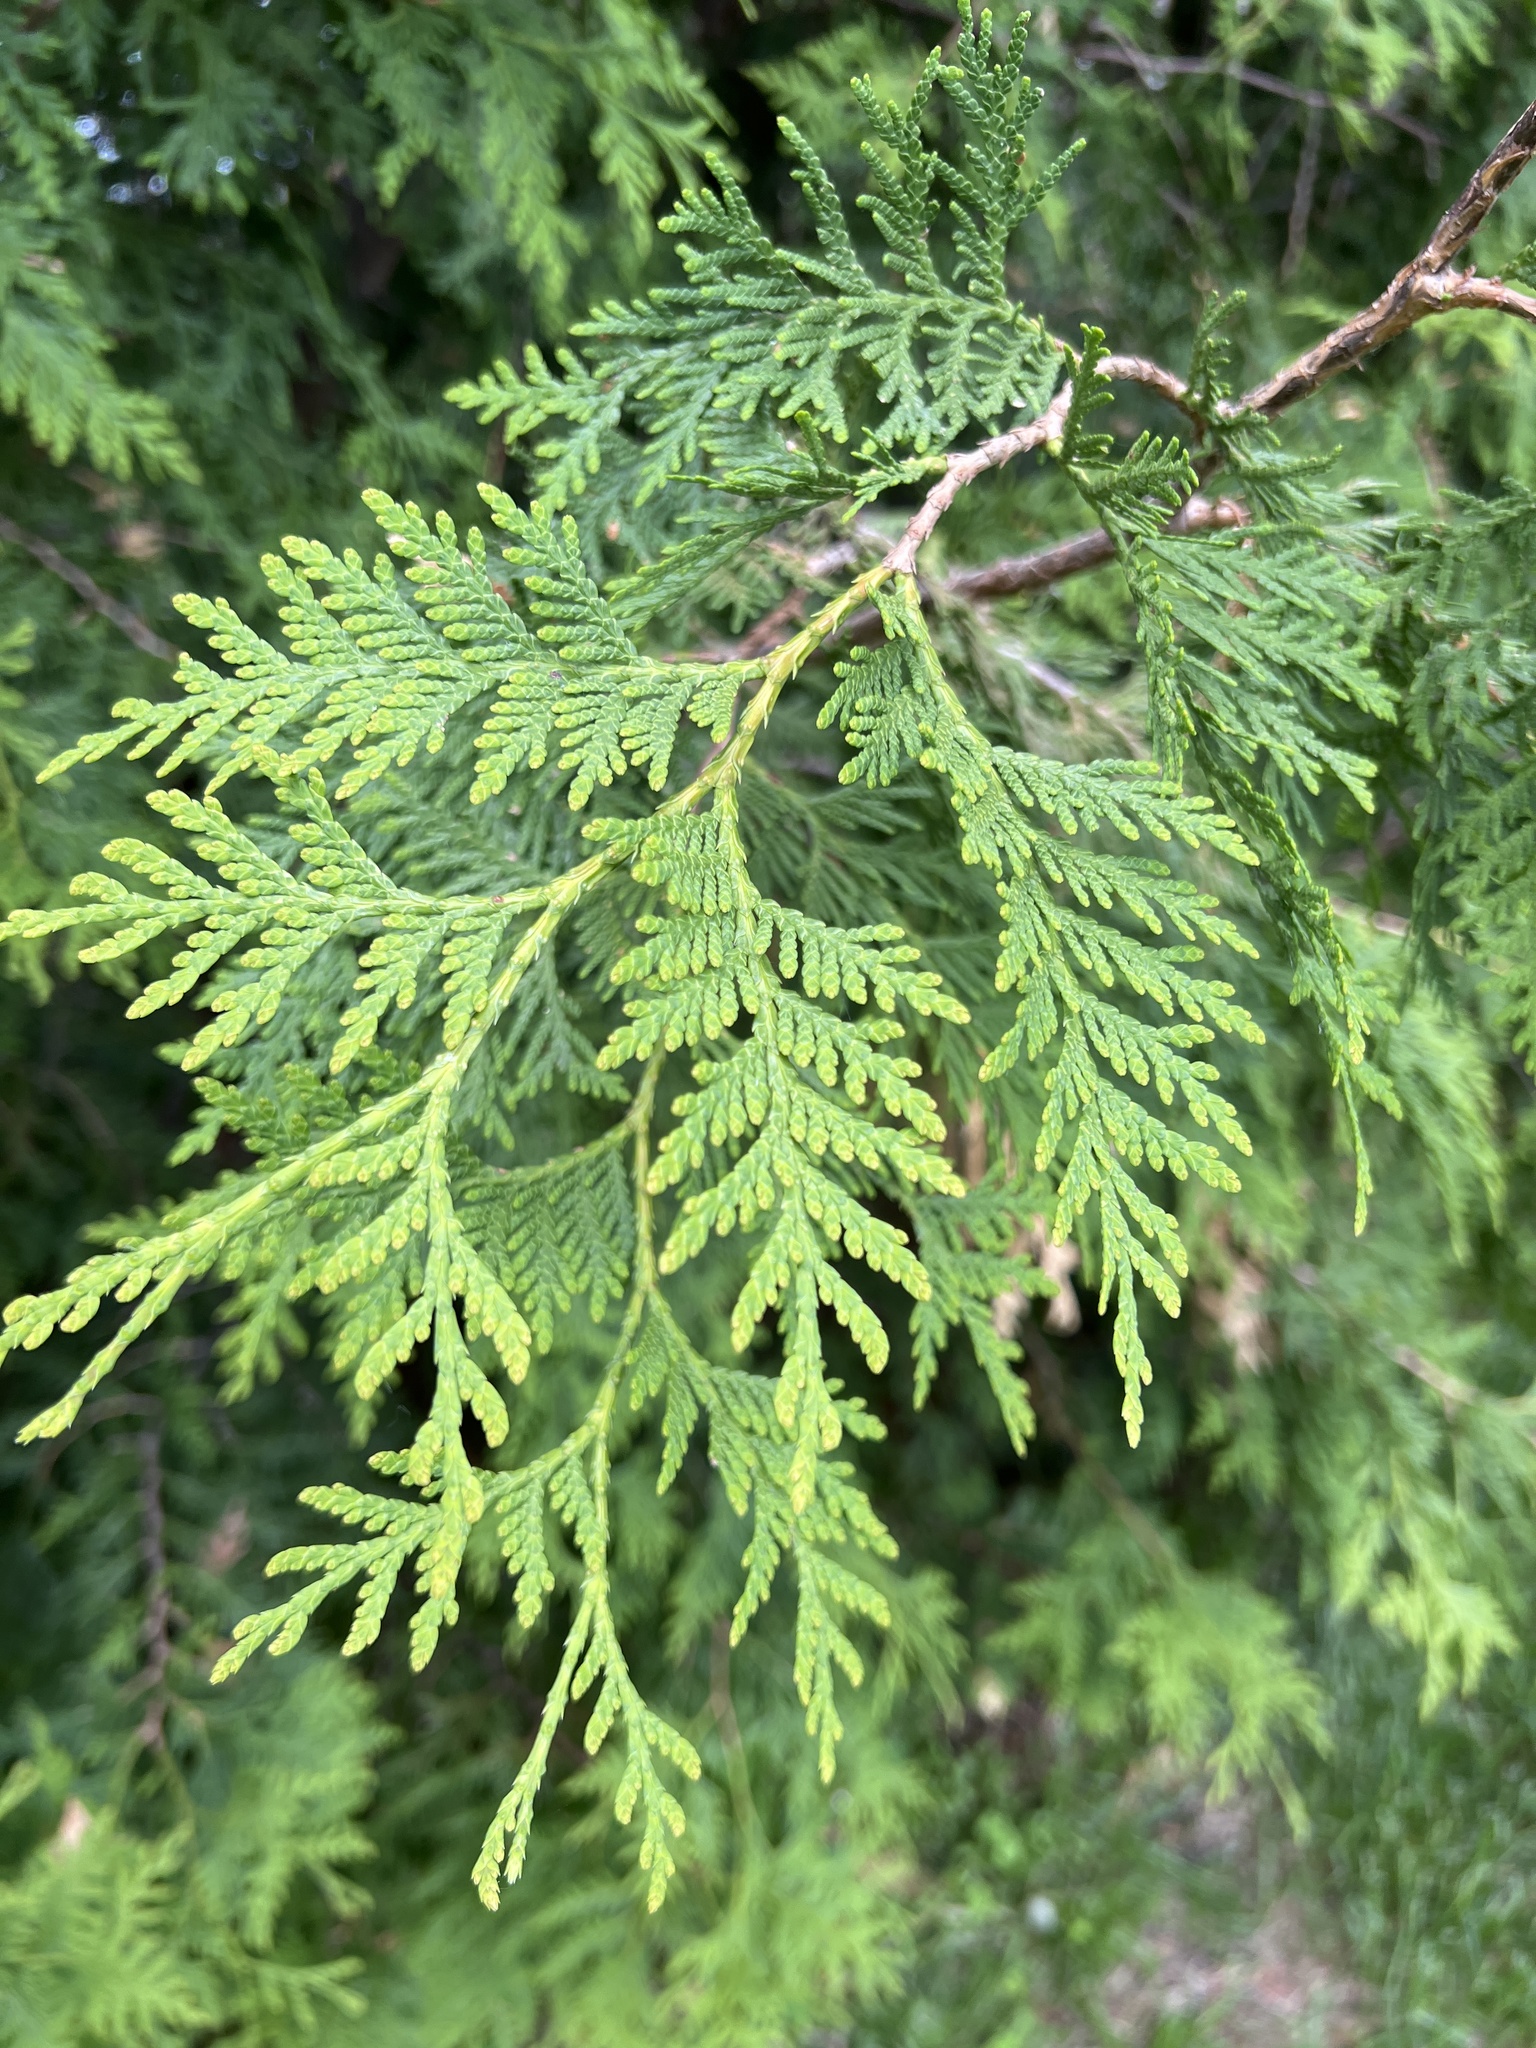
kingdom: Plantae
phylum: Tracheophyta
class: Pinopsida
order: Pinales
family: Cupressaceae
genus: Thuja
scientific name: Thuja occidentalis
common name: Northern white-cedar
